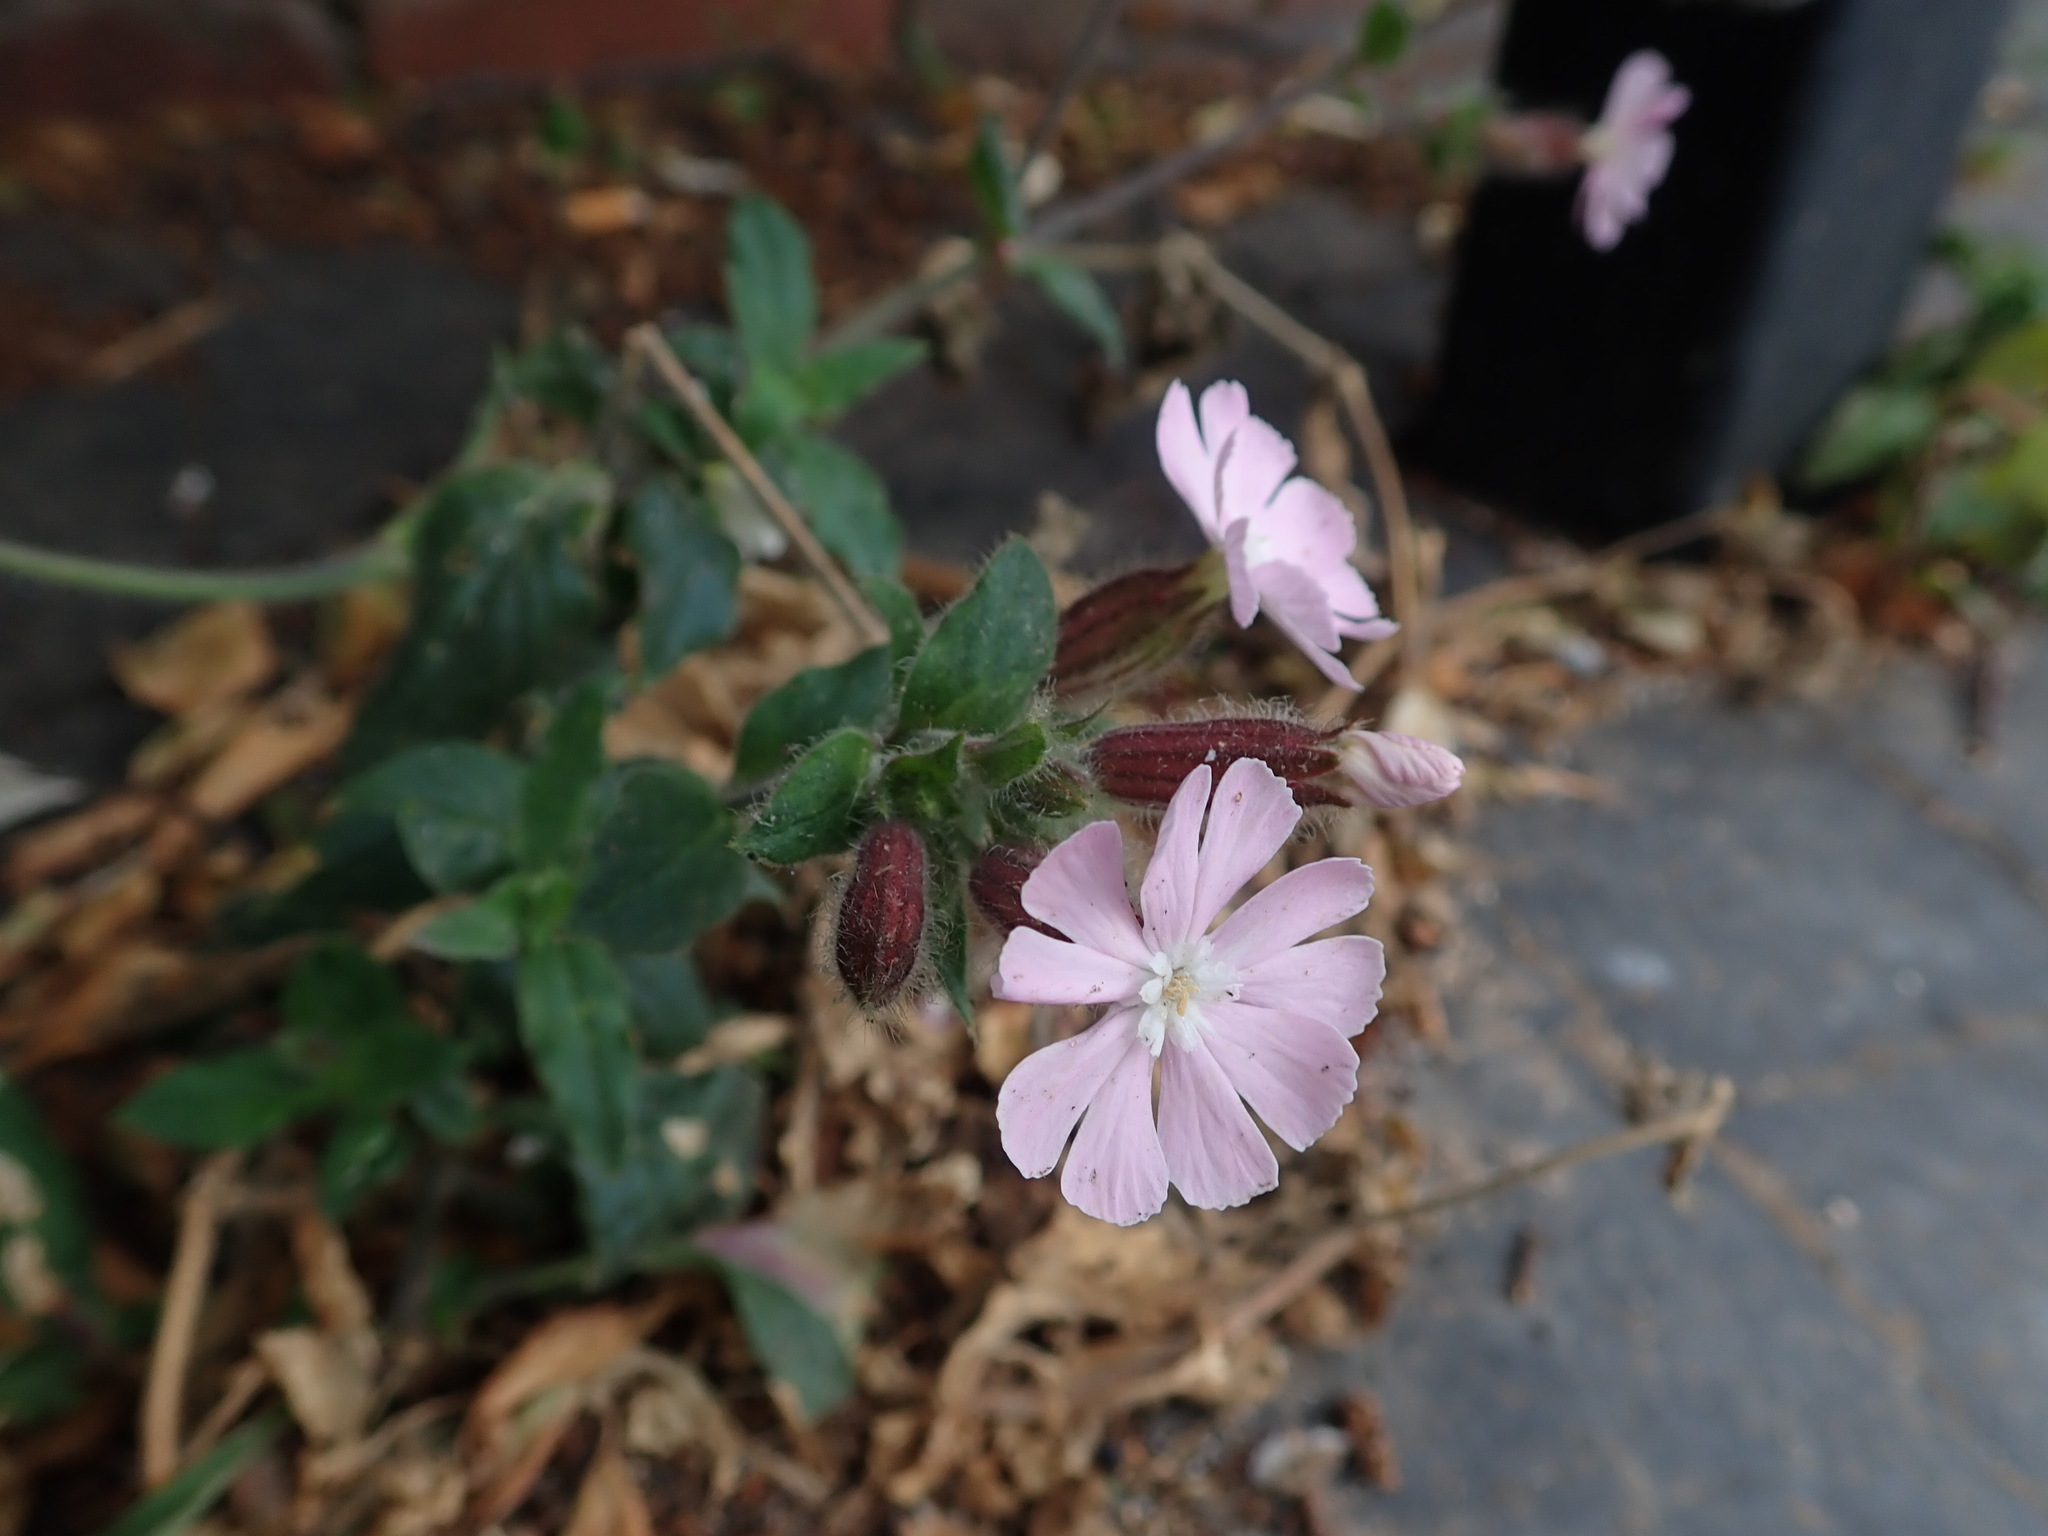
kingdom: Plantae
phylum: Tracheophyta
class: Magnoliopsida
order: Caryophyllales
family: Caryophyllaceae
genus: Silene
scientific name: Silene hampeana
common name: Catchfly
